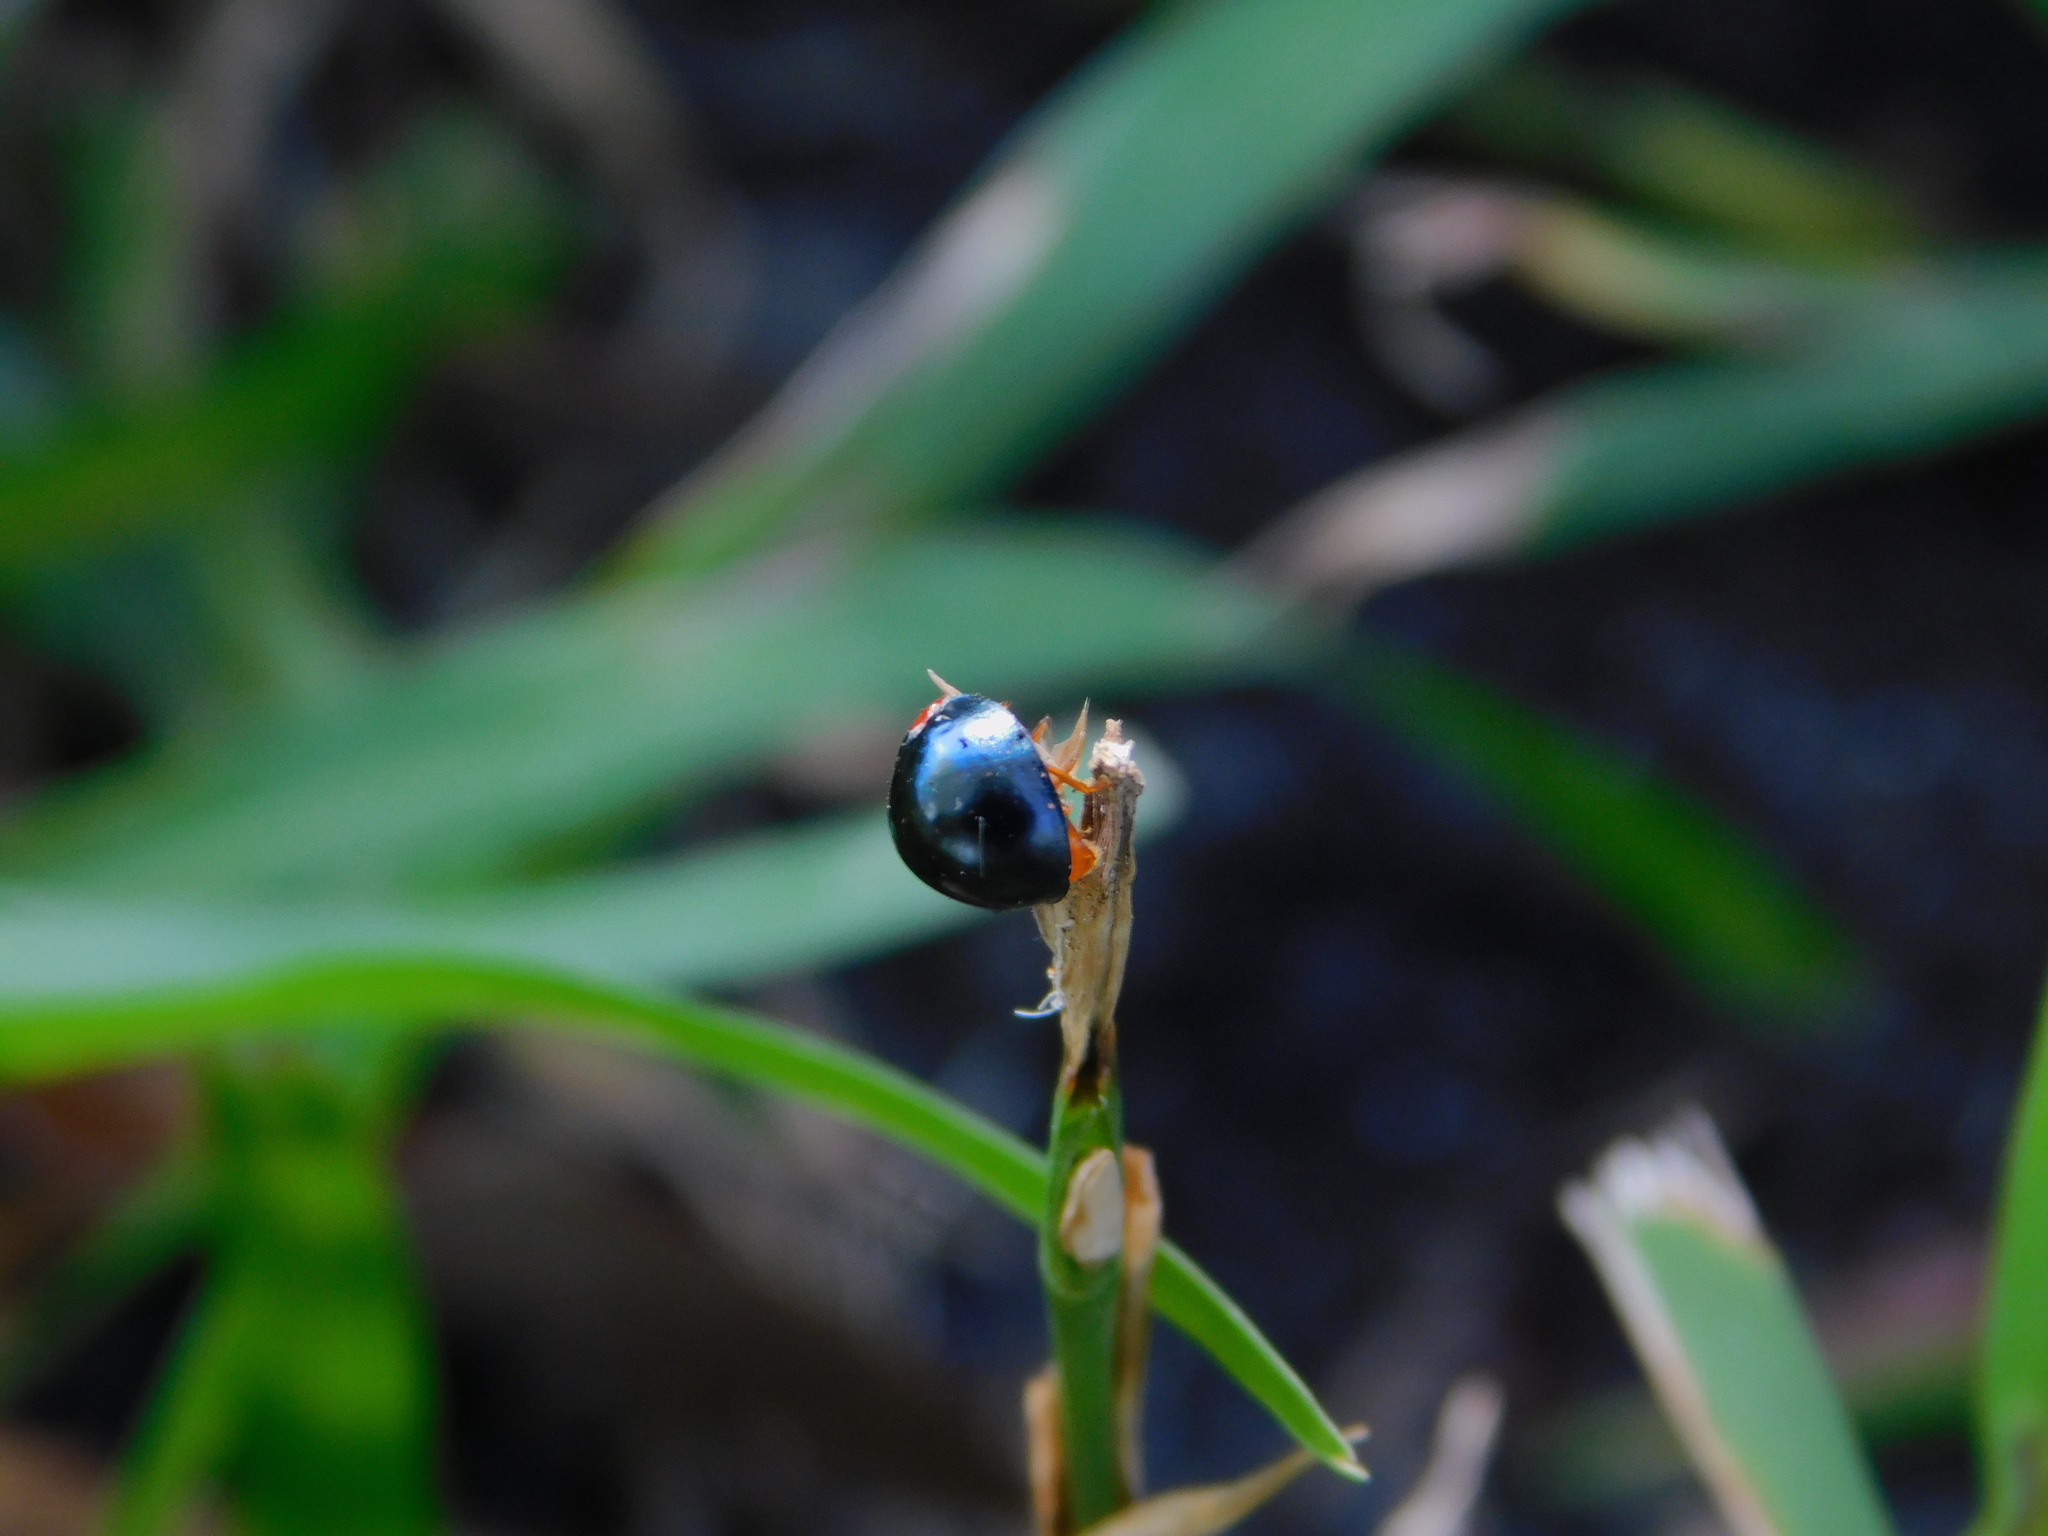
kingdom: Animalia
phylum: Arthropoda
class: Insecta
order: Coleoptera
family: Coccinellidae
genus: Curinus
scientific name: Curinus coeruleus
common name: Ladybird beetle
